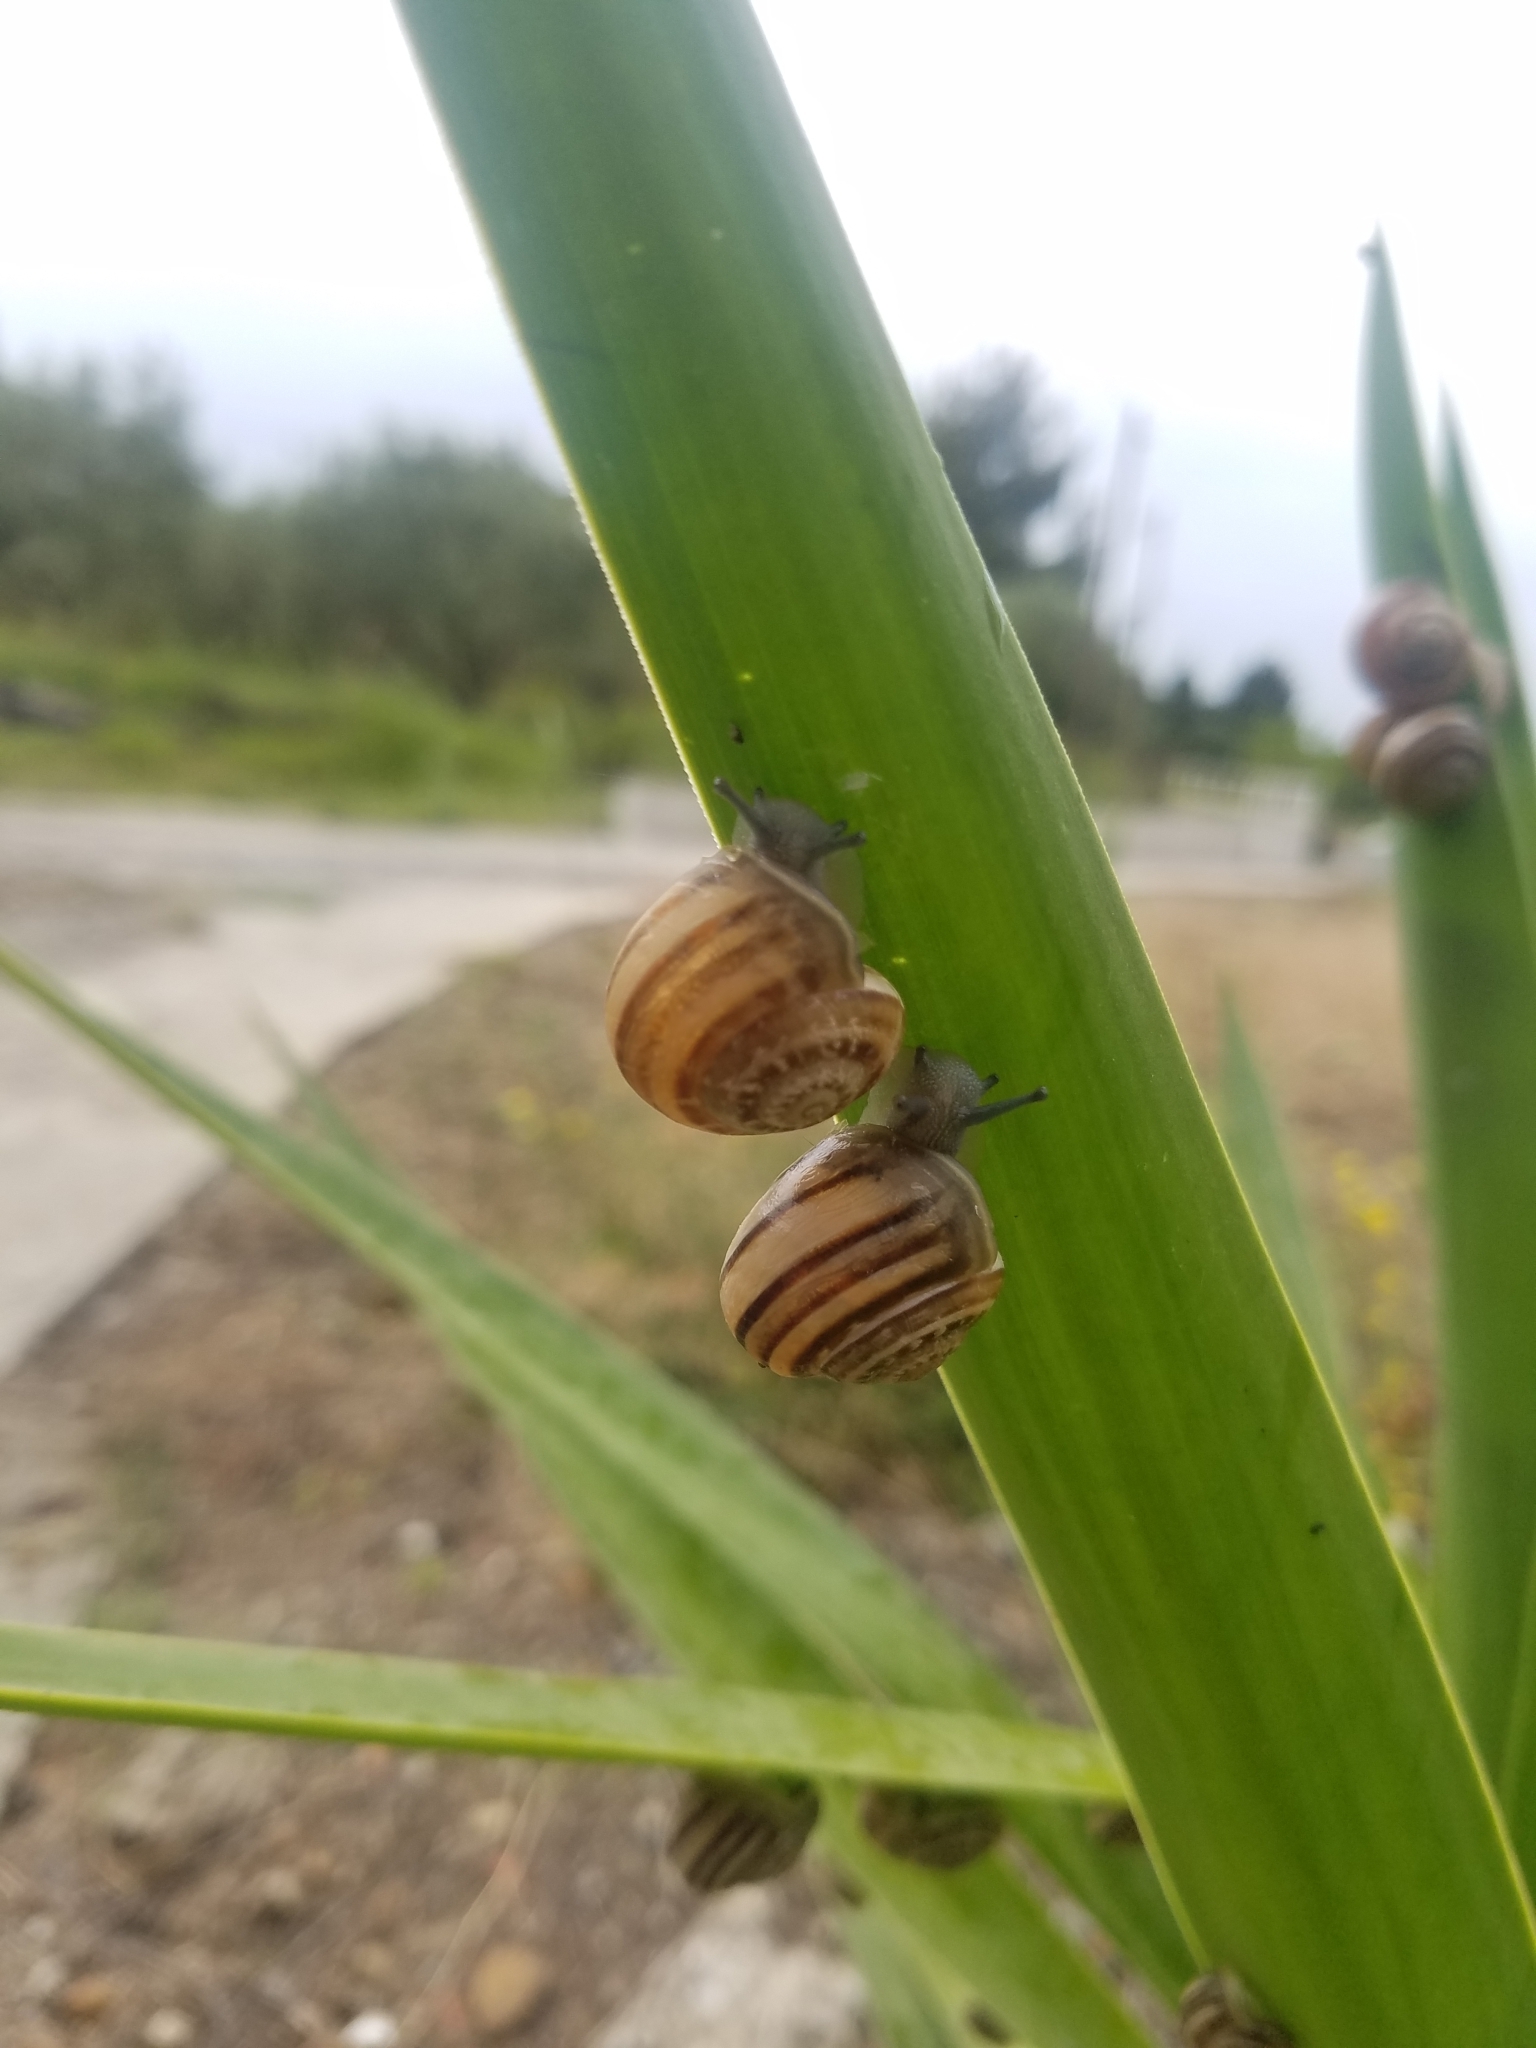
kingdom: Animalia
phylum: Mollusca
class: Gastropoda
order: Stylommatophora
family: Helicidae
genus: Eobania
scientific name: Eobania vermiculata
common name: Chocolateband snail
